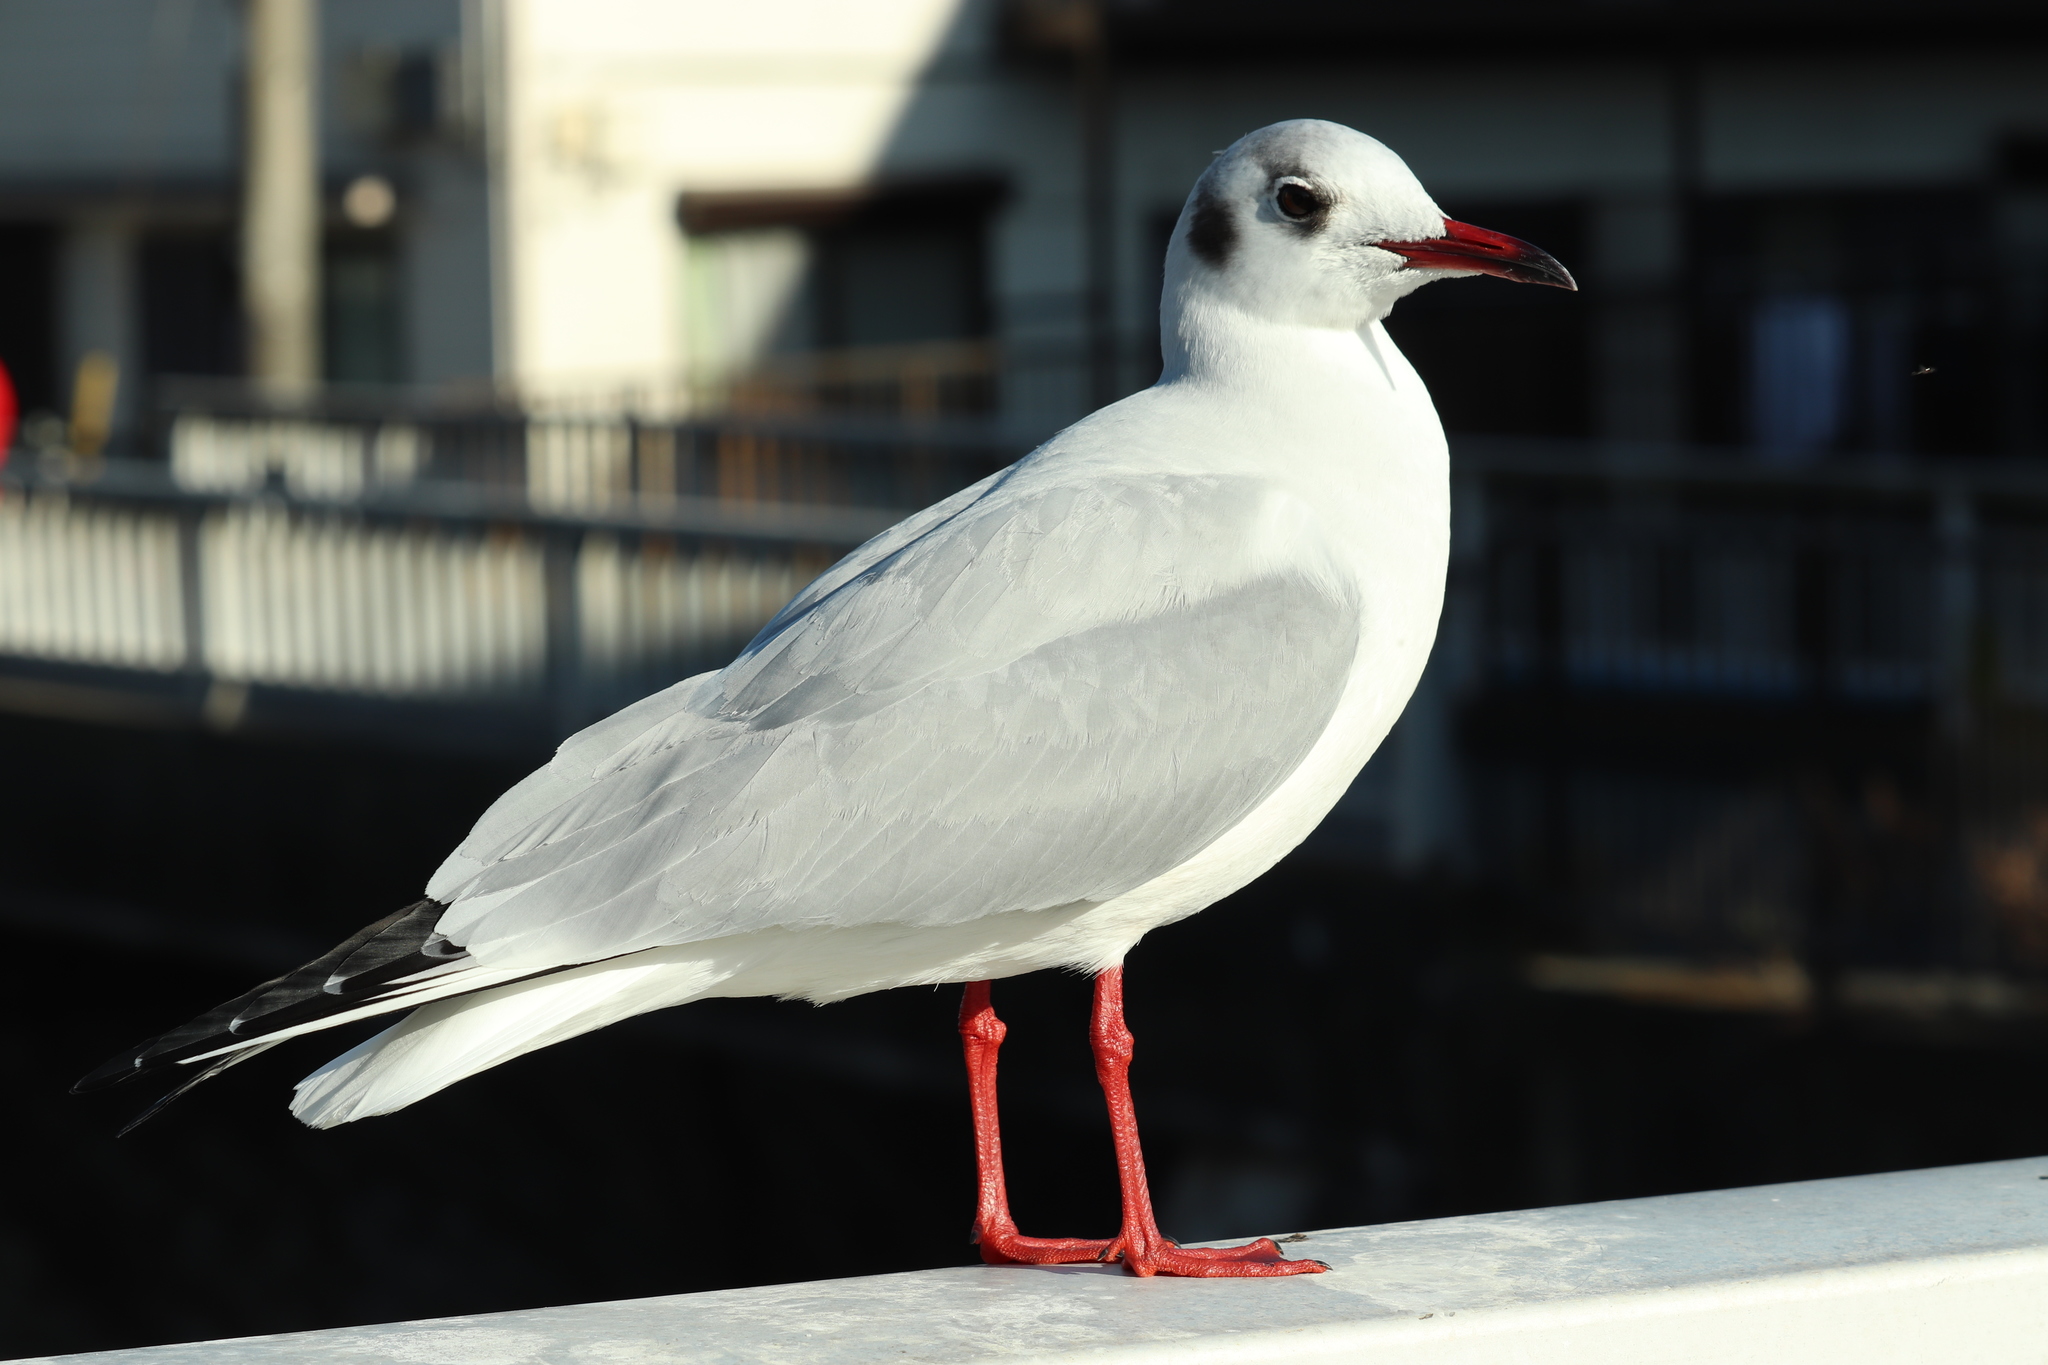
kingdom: Animalia
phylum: Chordata
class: Aves
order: Charadriiformes
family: Laridae
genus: Chroicocephalus
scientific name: Chroicocephalus ridibundus
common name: Black-headed gull
